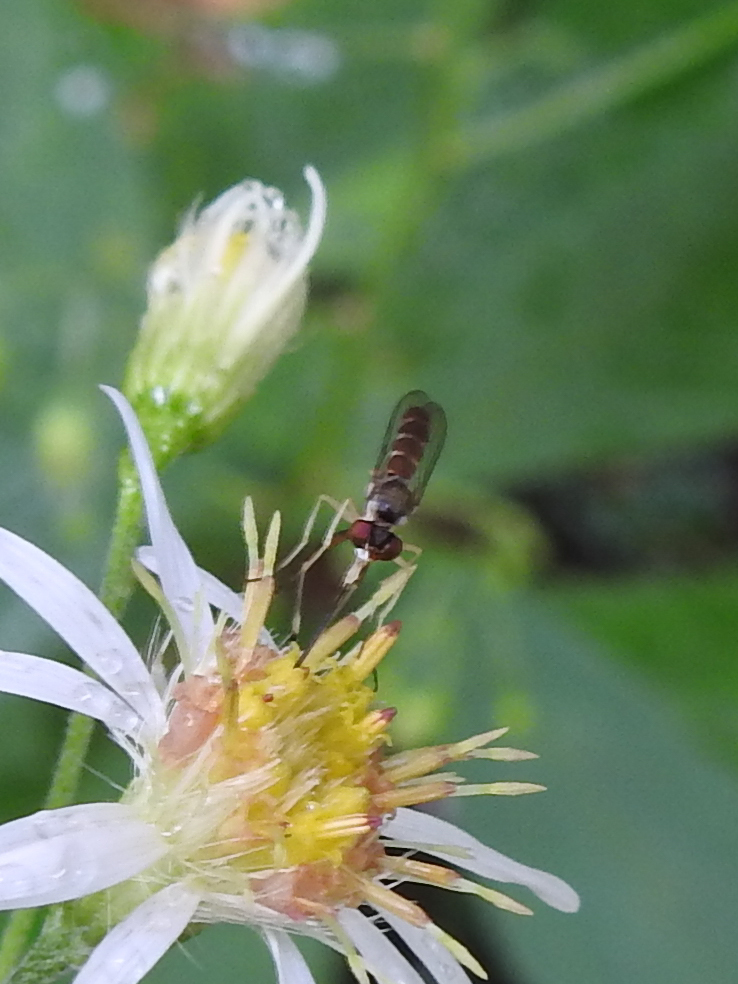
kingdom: Animalia
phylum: Arthropoda
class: Insecta
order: Diptera
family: Conopidae
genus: Stylogaster
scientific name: Stylogaster neglecta
